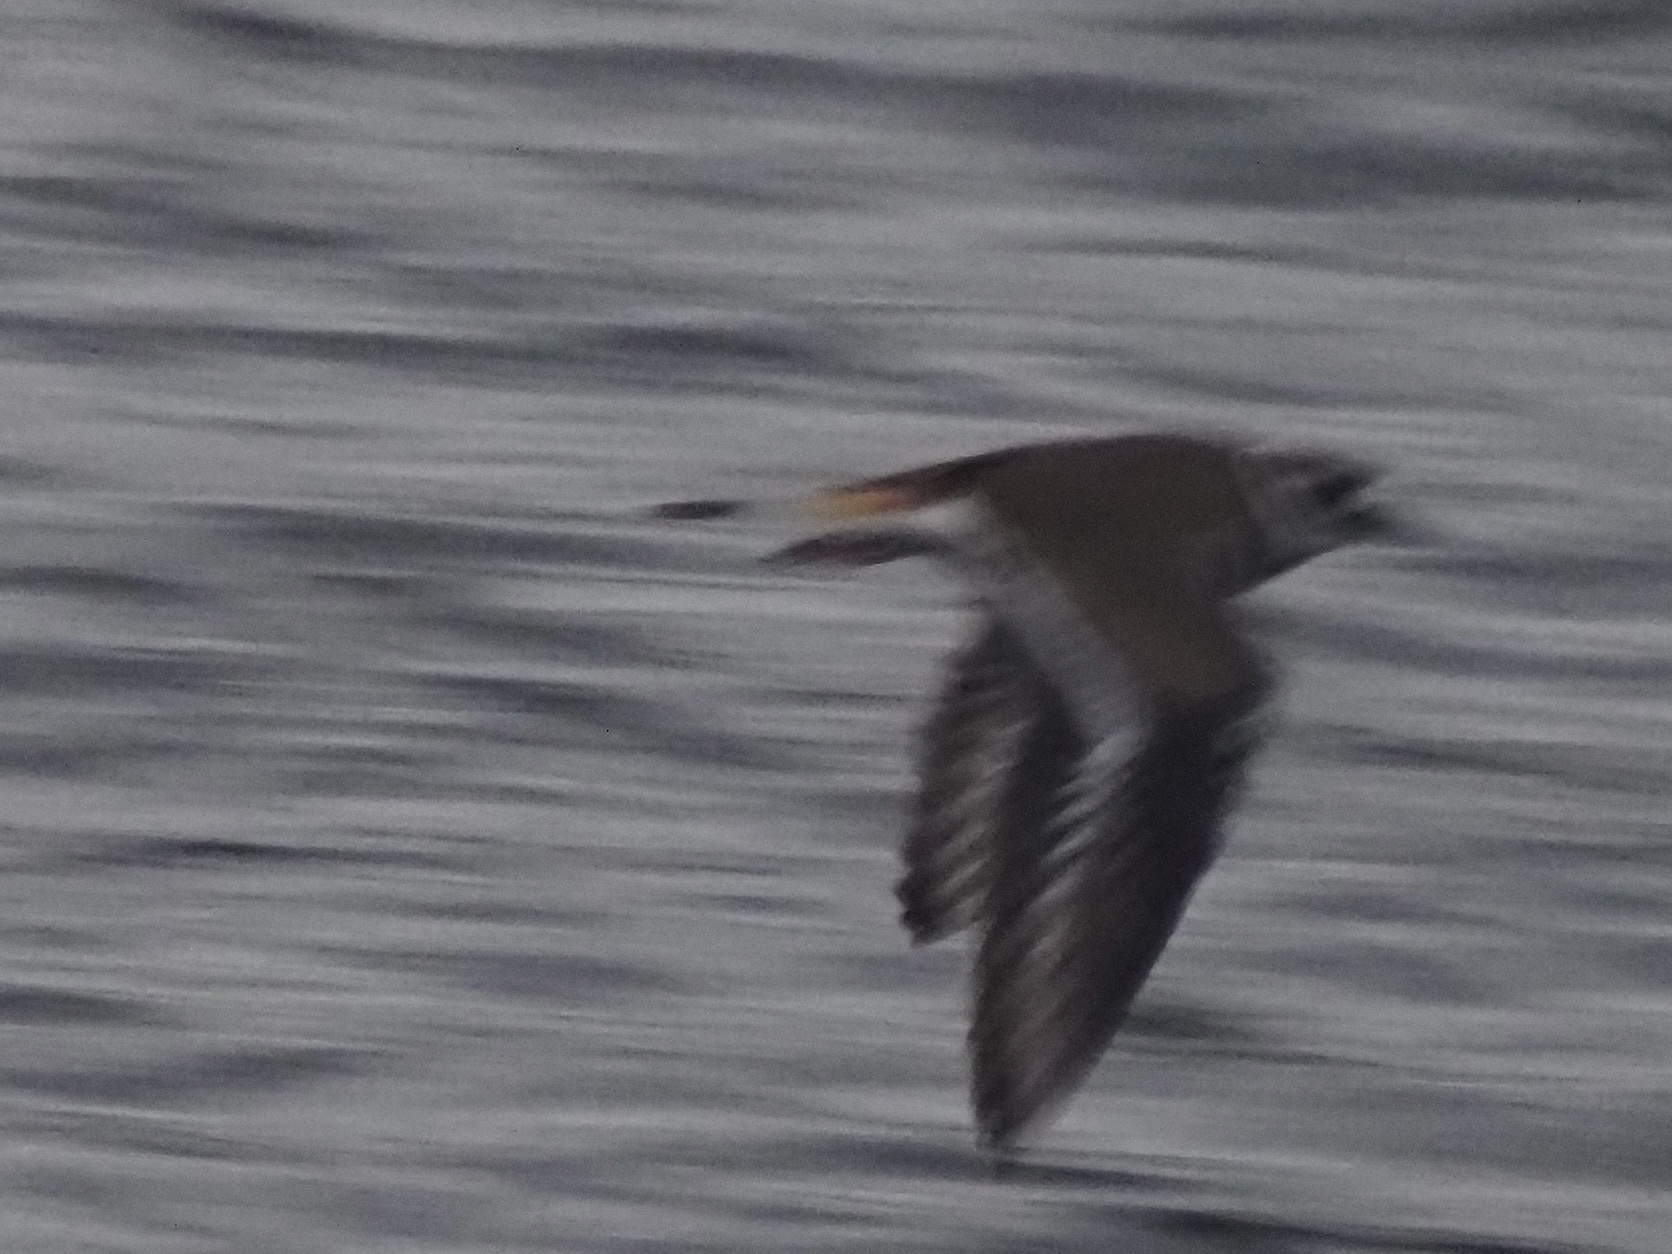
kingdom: Animalia
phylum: Chordata
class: Aves
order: Charadriiformes
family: Charadriidae
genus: Charadrius
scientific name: Charadrius vociferus
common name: Killdeer
